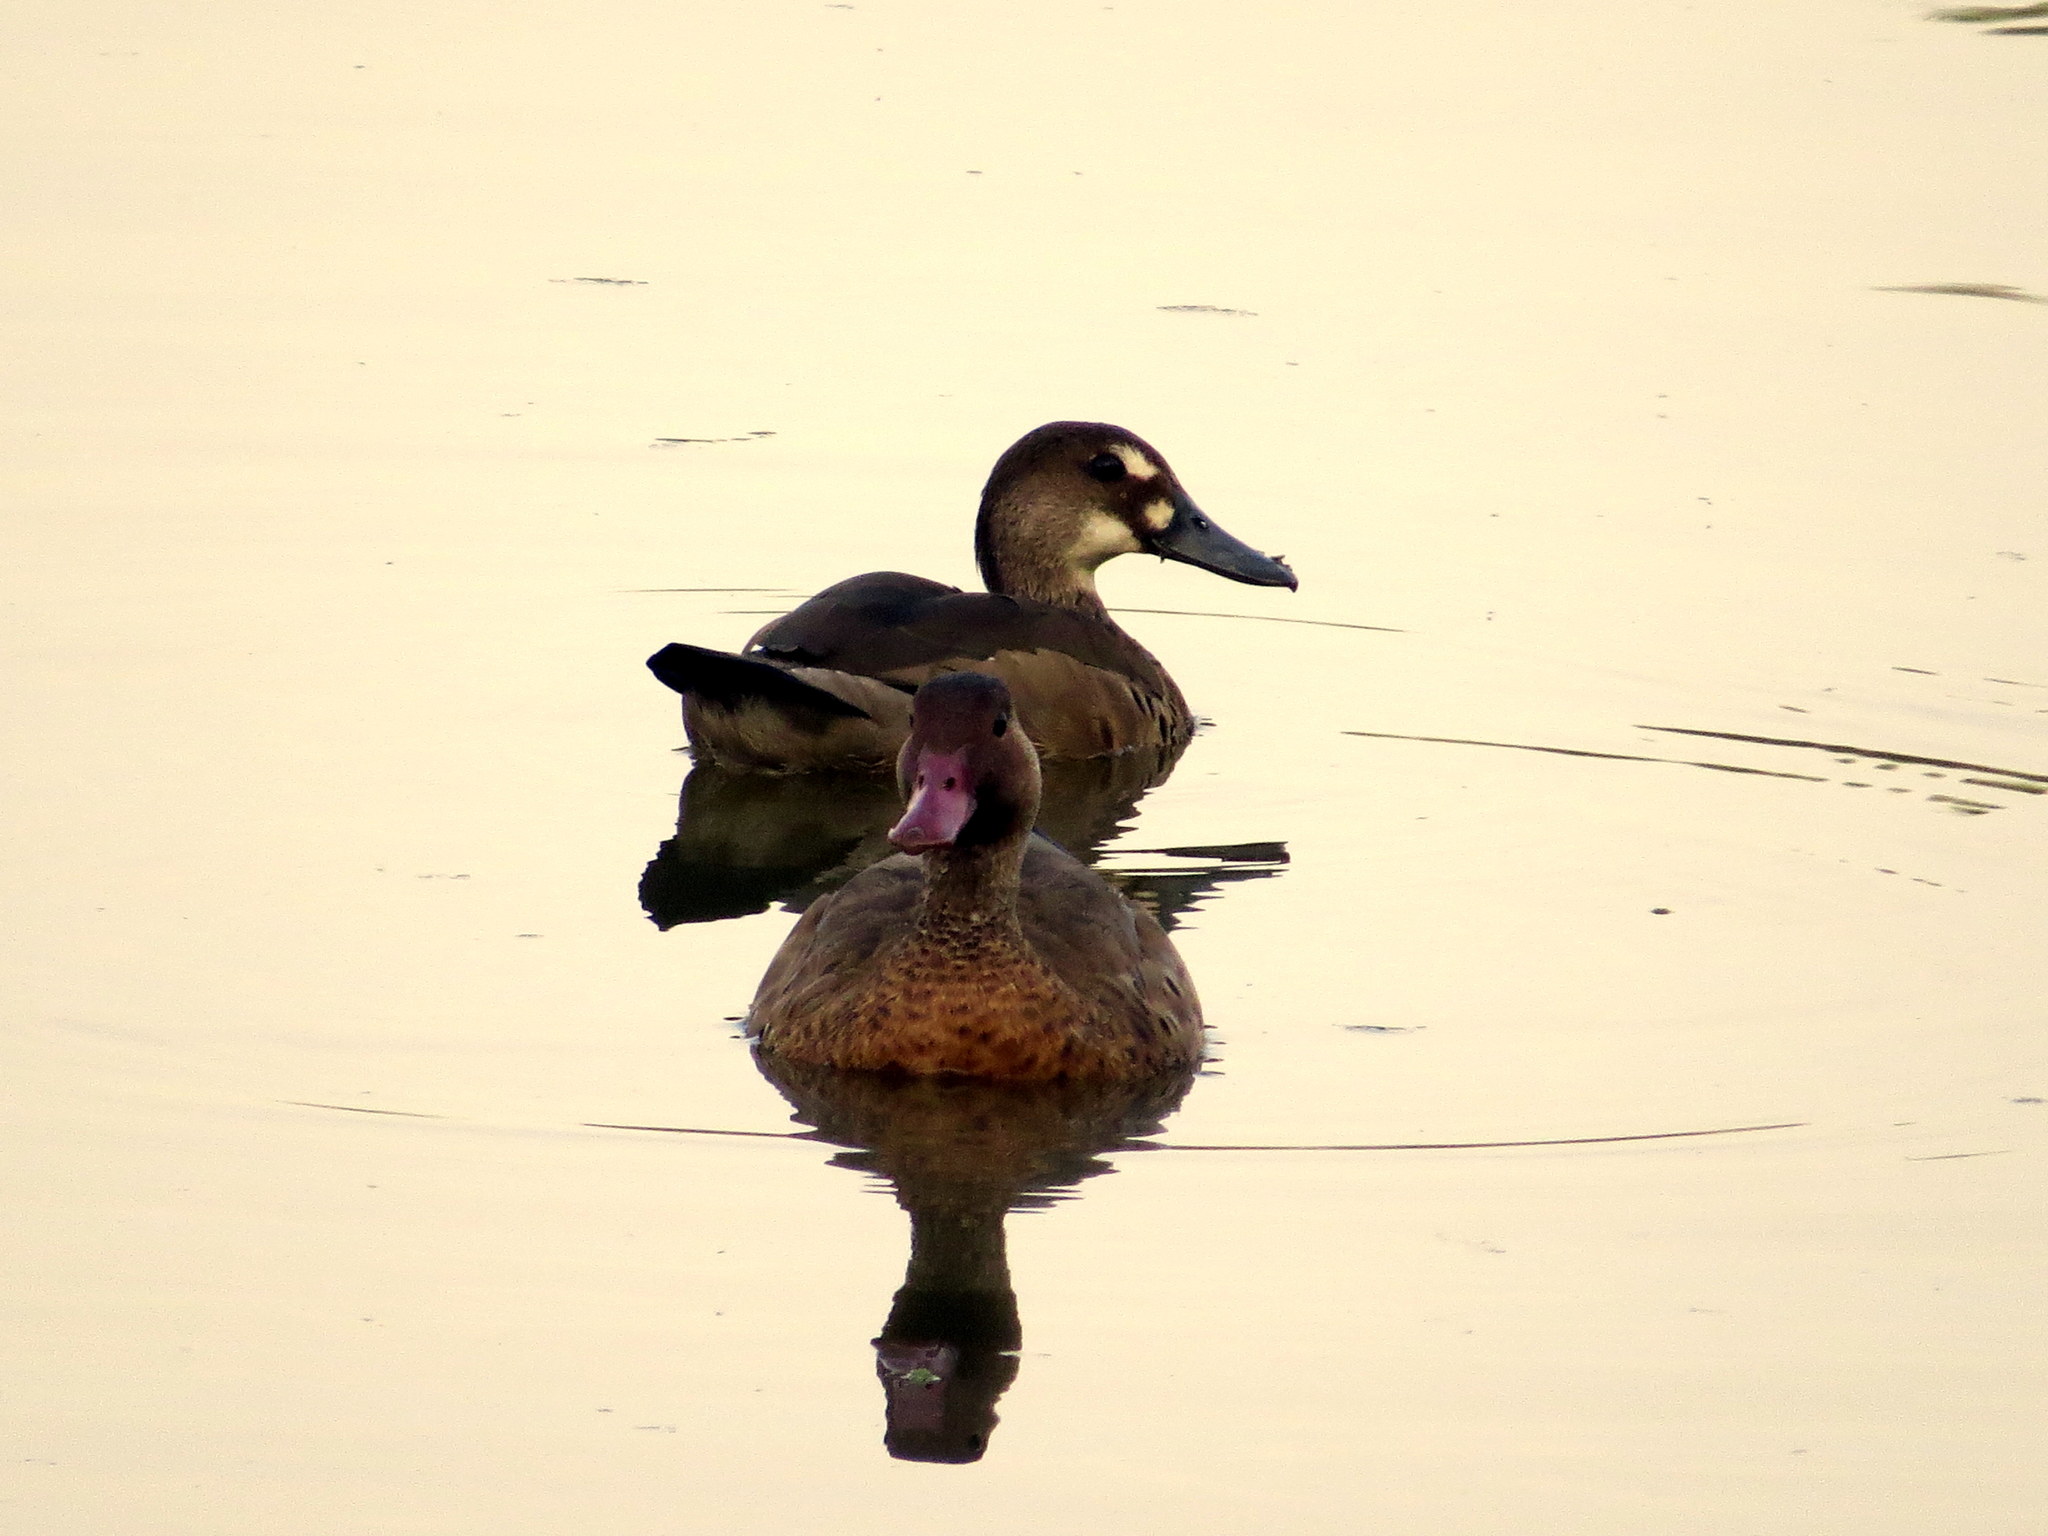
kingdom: Animalia
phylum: Chordata
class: Aves
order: Anseriformes
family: Anatidae
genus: Amazonetta
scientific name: Amazonetta brasiliensis
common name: Brazilian teal
